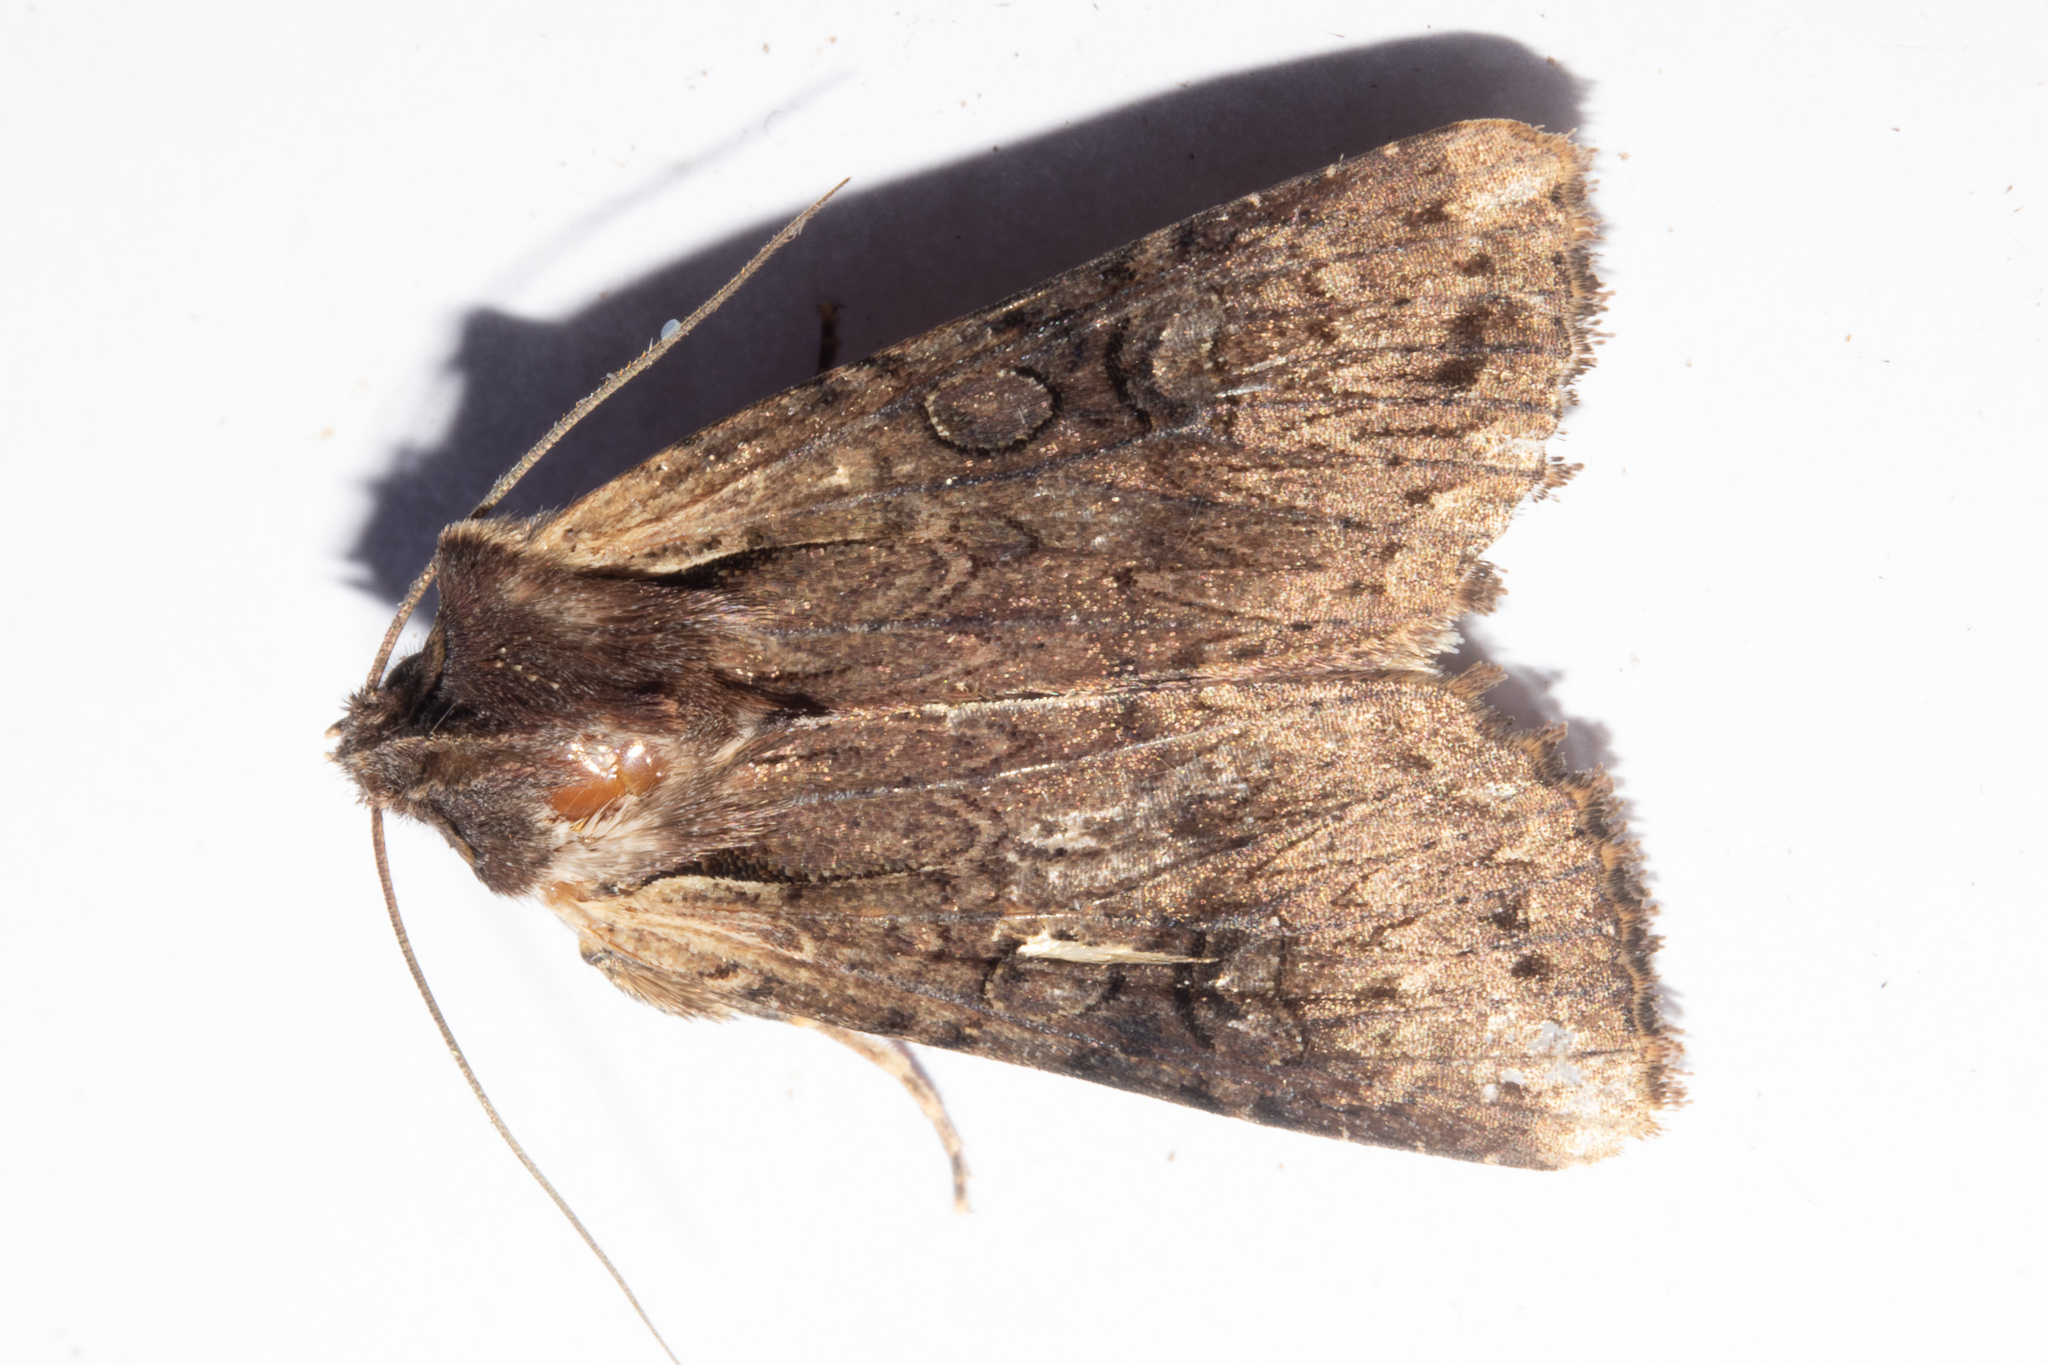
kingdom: Animalia
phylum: Arthropoda
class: Insecta
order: Lepidoptera
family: Noctuidae
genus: Ichneutica
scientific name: Ichneutica omoplaca
